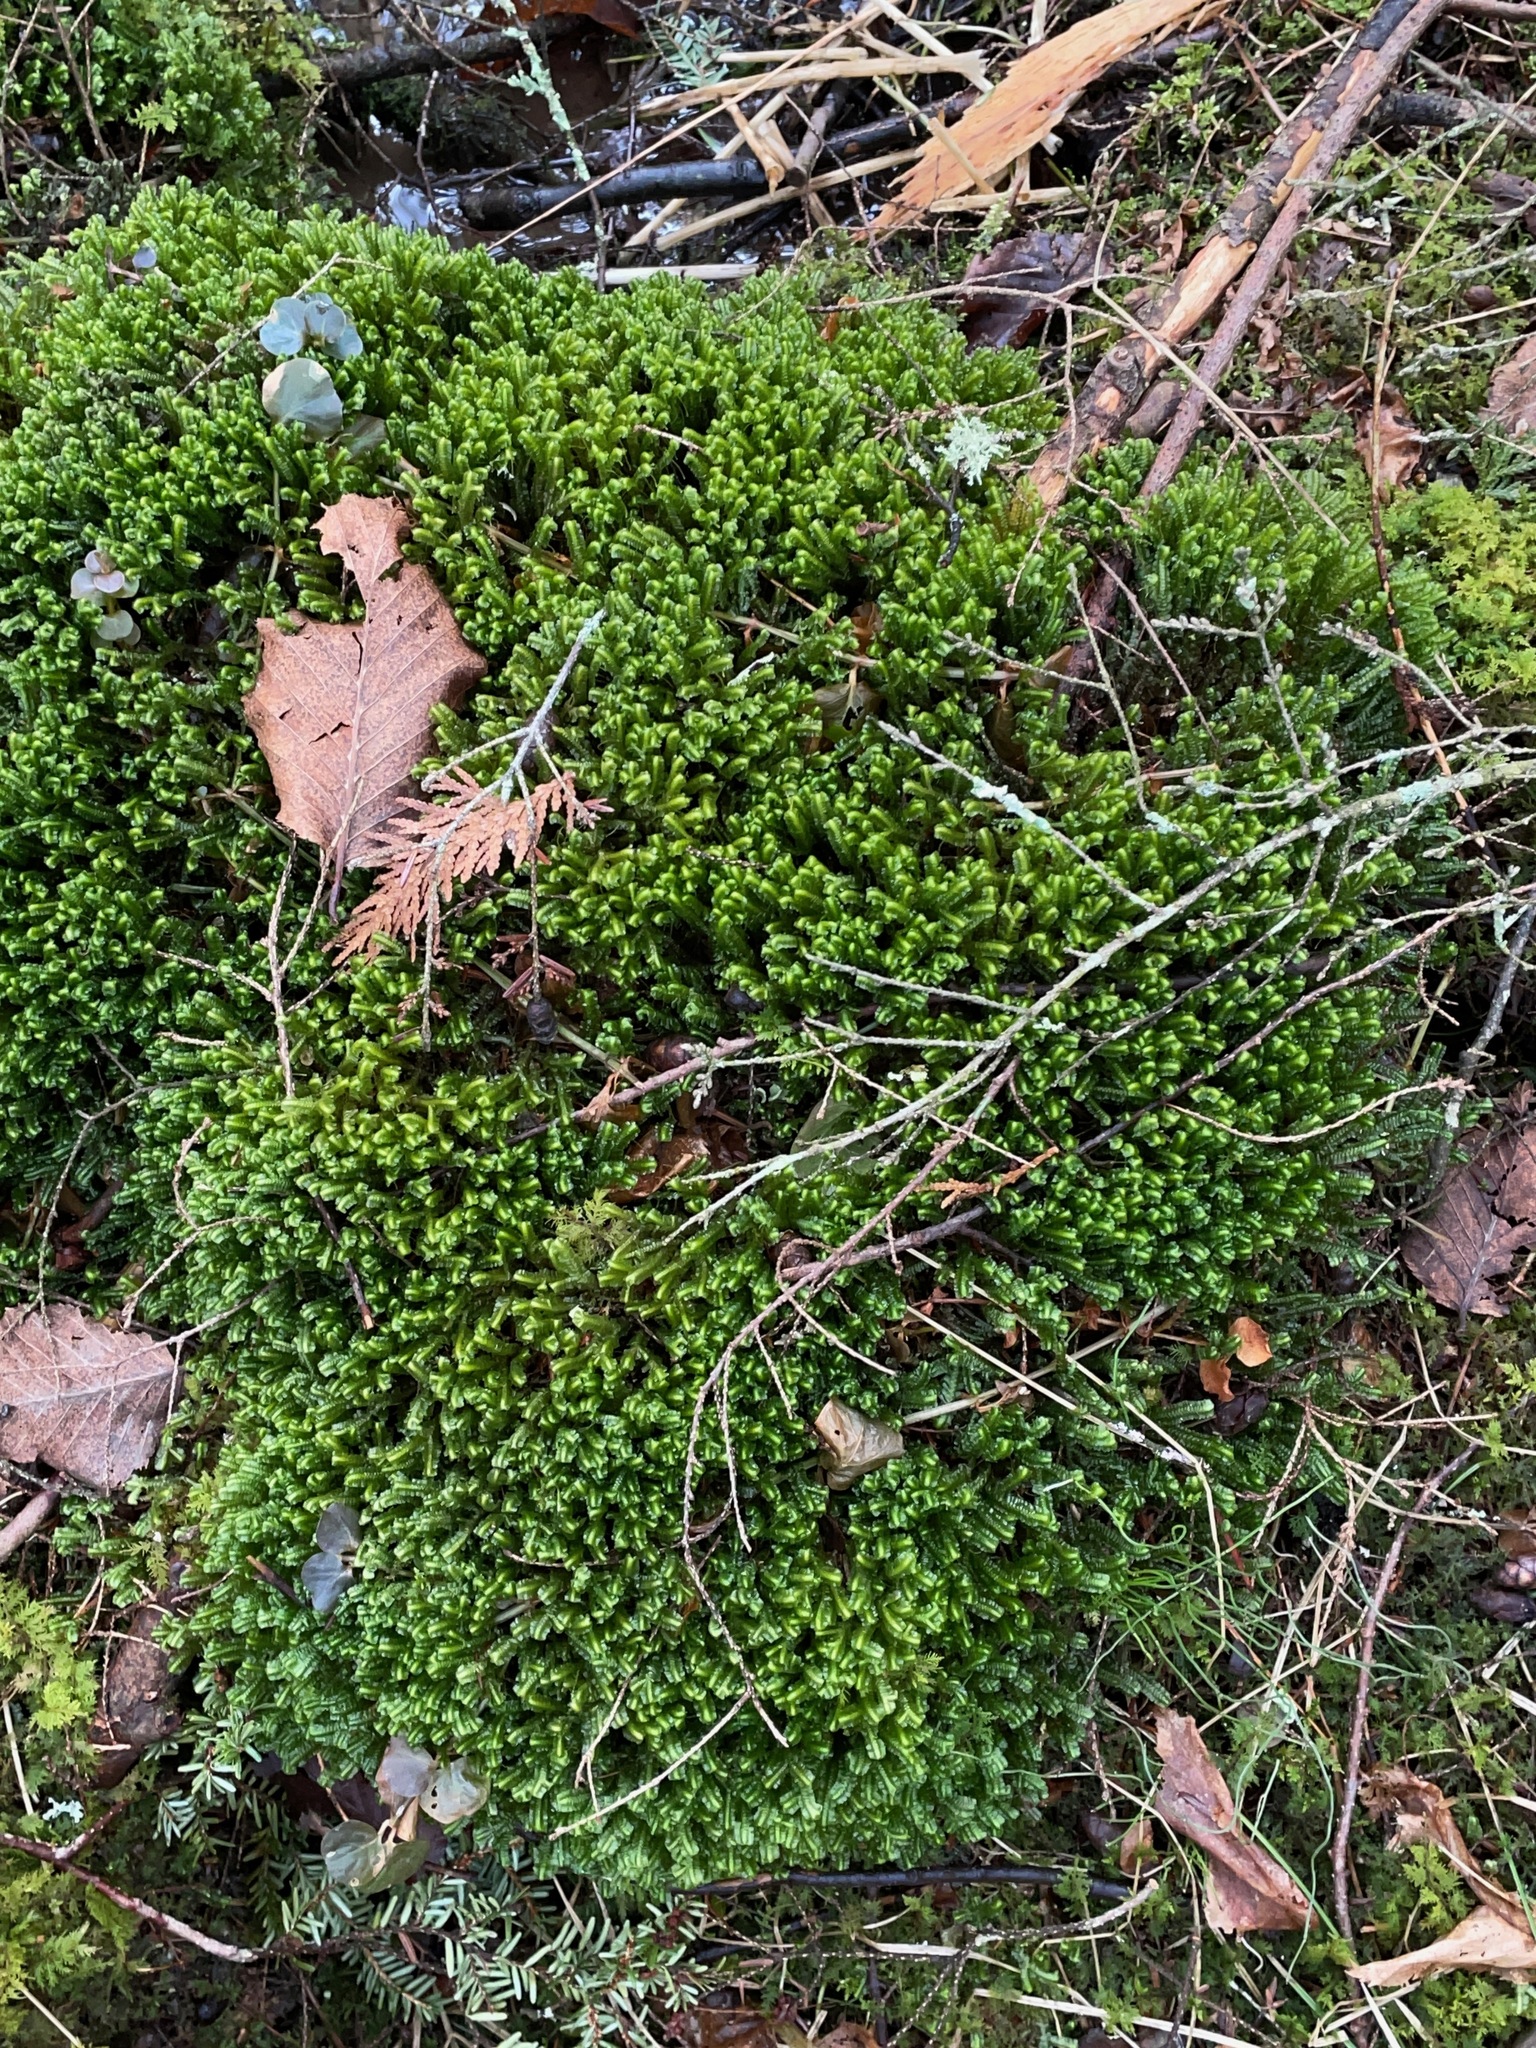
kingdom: Plantae
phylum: Marchantiophyta
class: Jungermanniopsida
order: Jungermanniales
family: Lepidoziaceae
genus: Bazzania
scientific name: Bazzania trilobata
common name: Three-lobed whipwort
